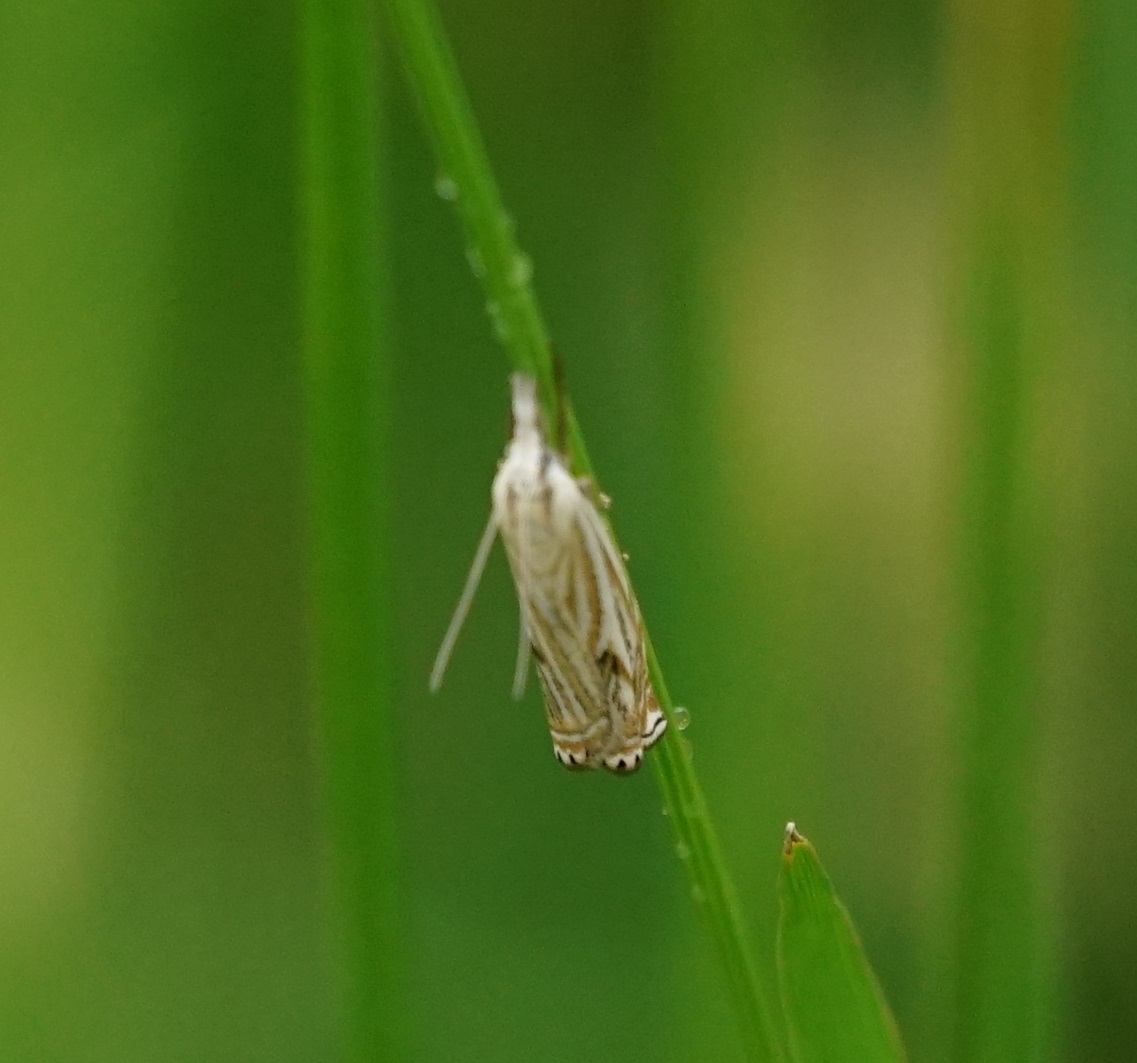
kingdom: Animalia
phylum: Arthropoda
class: Insecta
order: Lepidoptera
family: Crambidae
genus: Crambus
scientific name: Crambus nemorella
